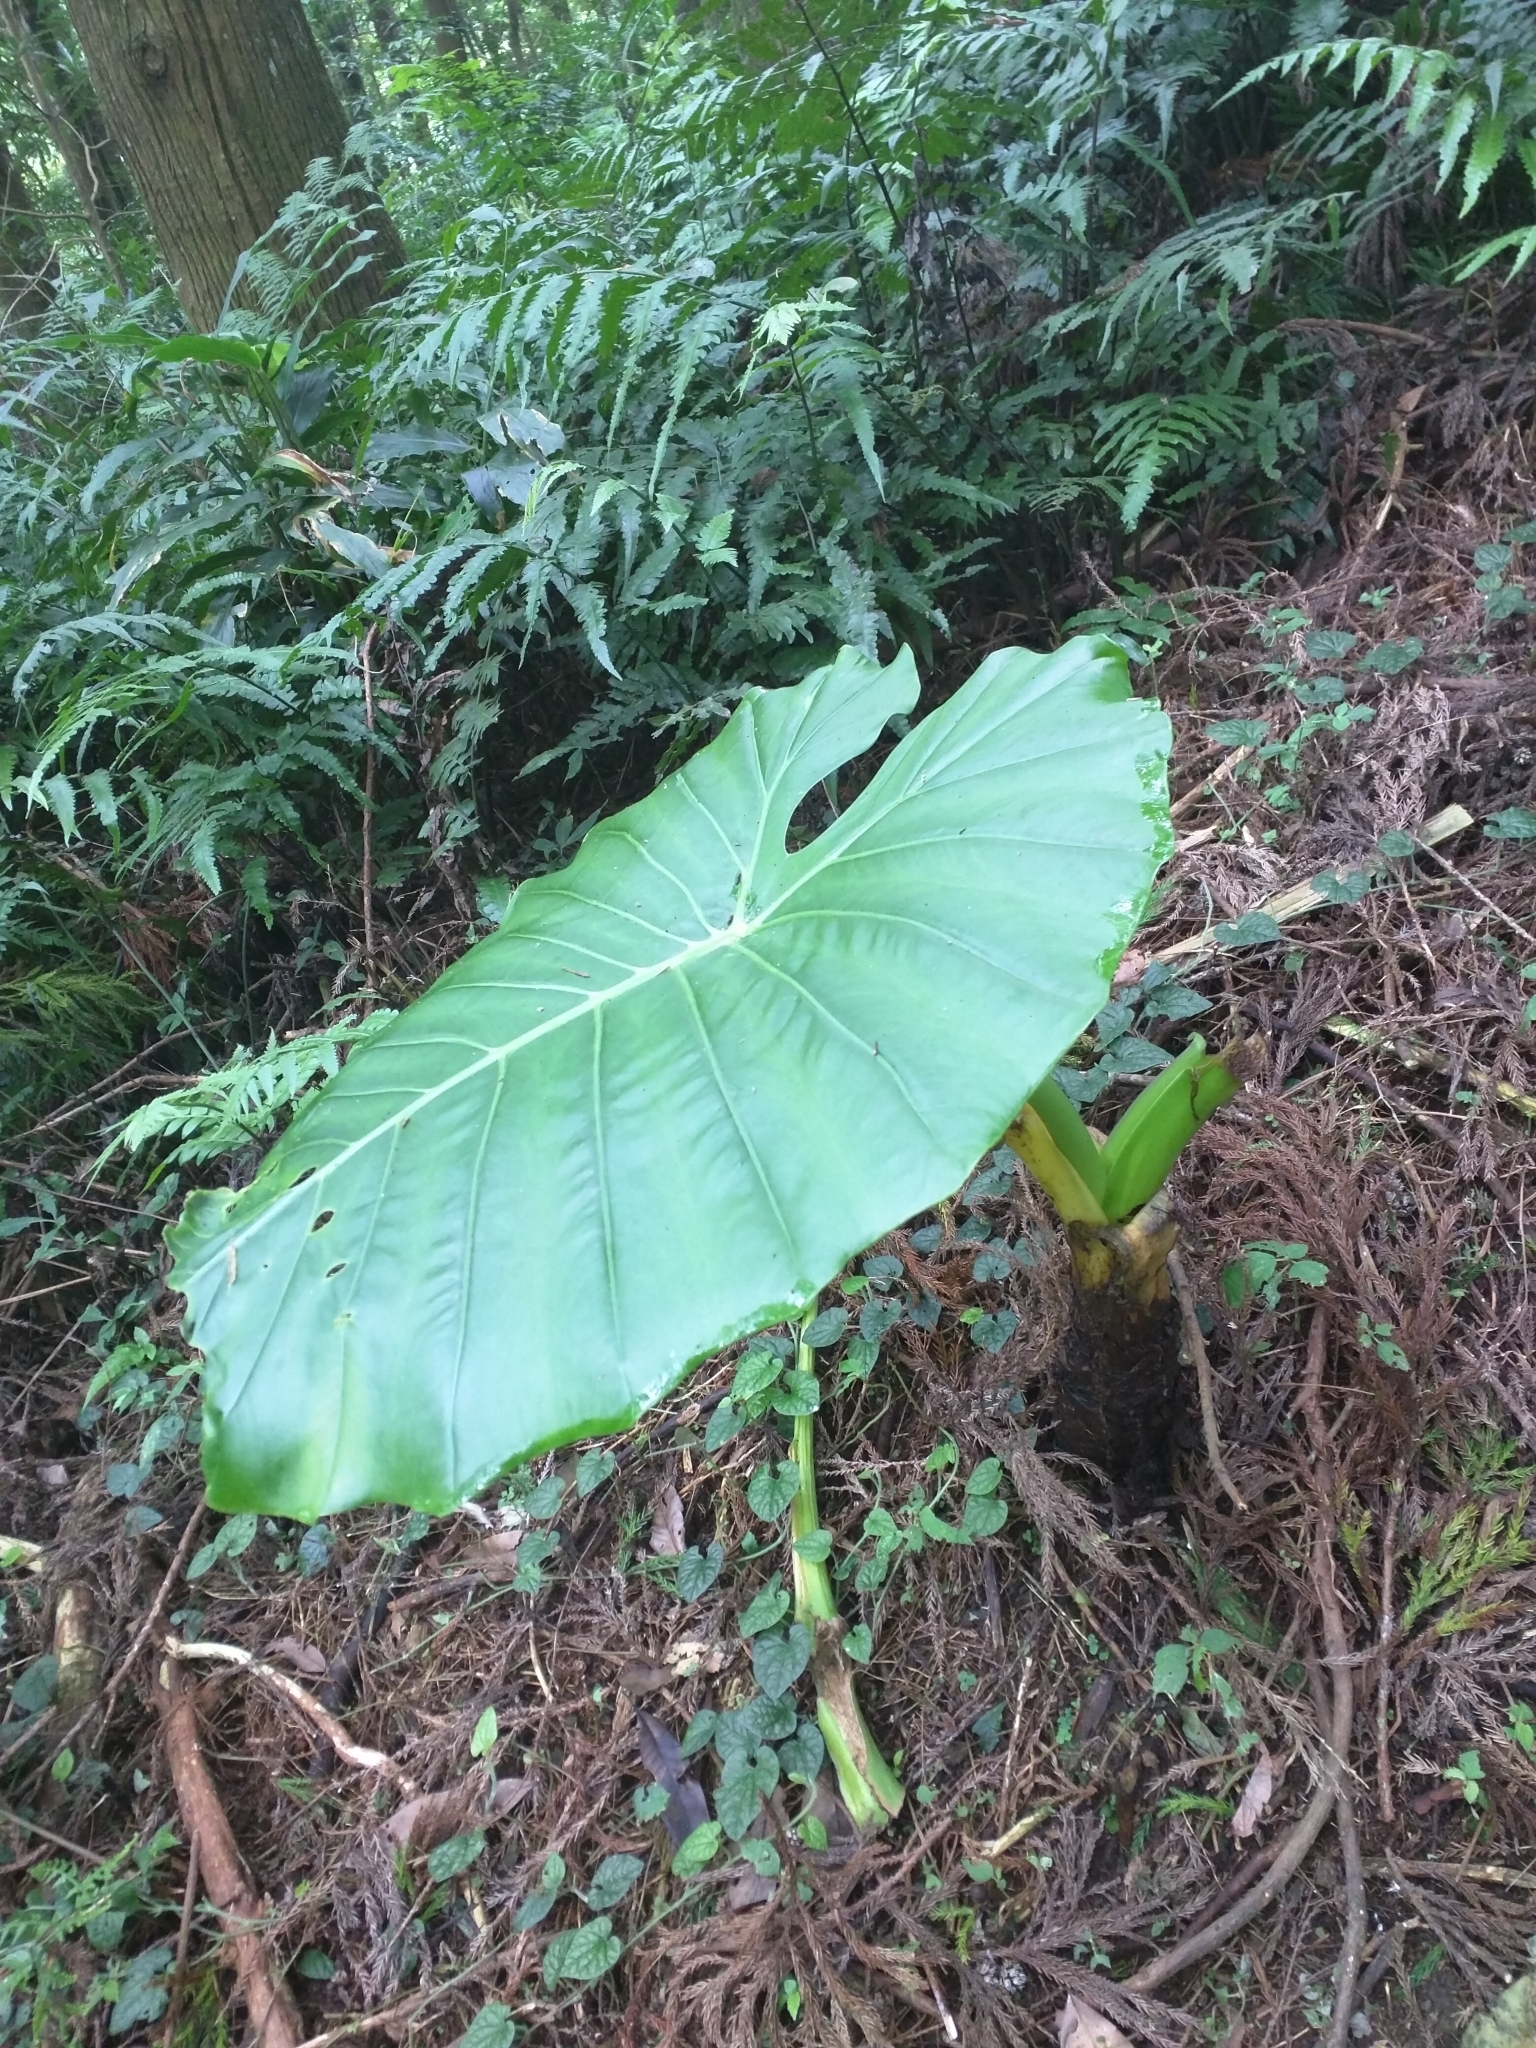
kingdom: Plantae
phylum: Tracheophyta
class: Liliopsida
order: Alismatales
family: Araceae
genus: Alocasia
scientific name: Alocasia odora
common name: Asian taro
